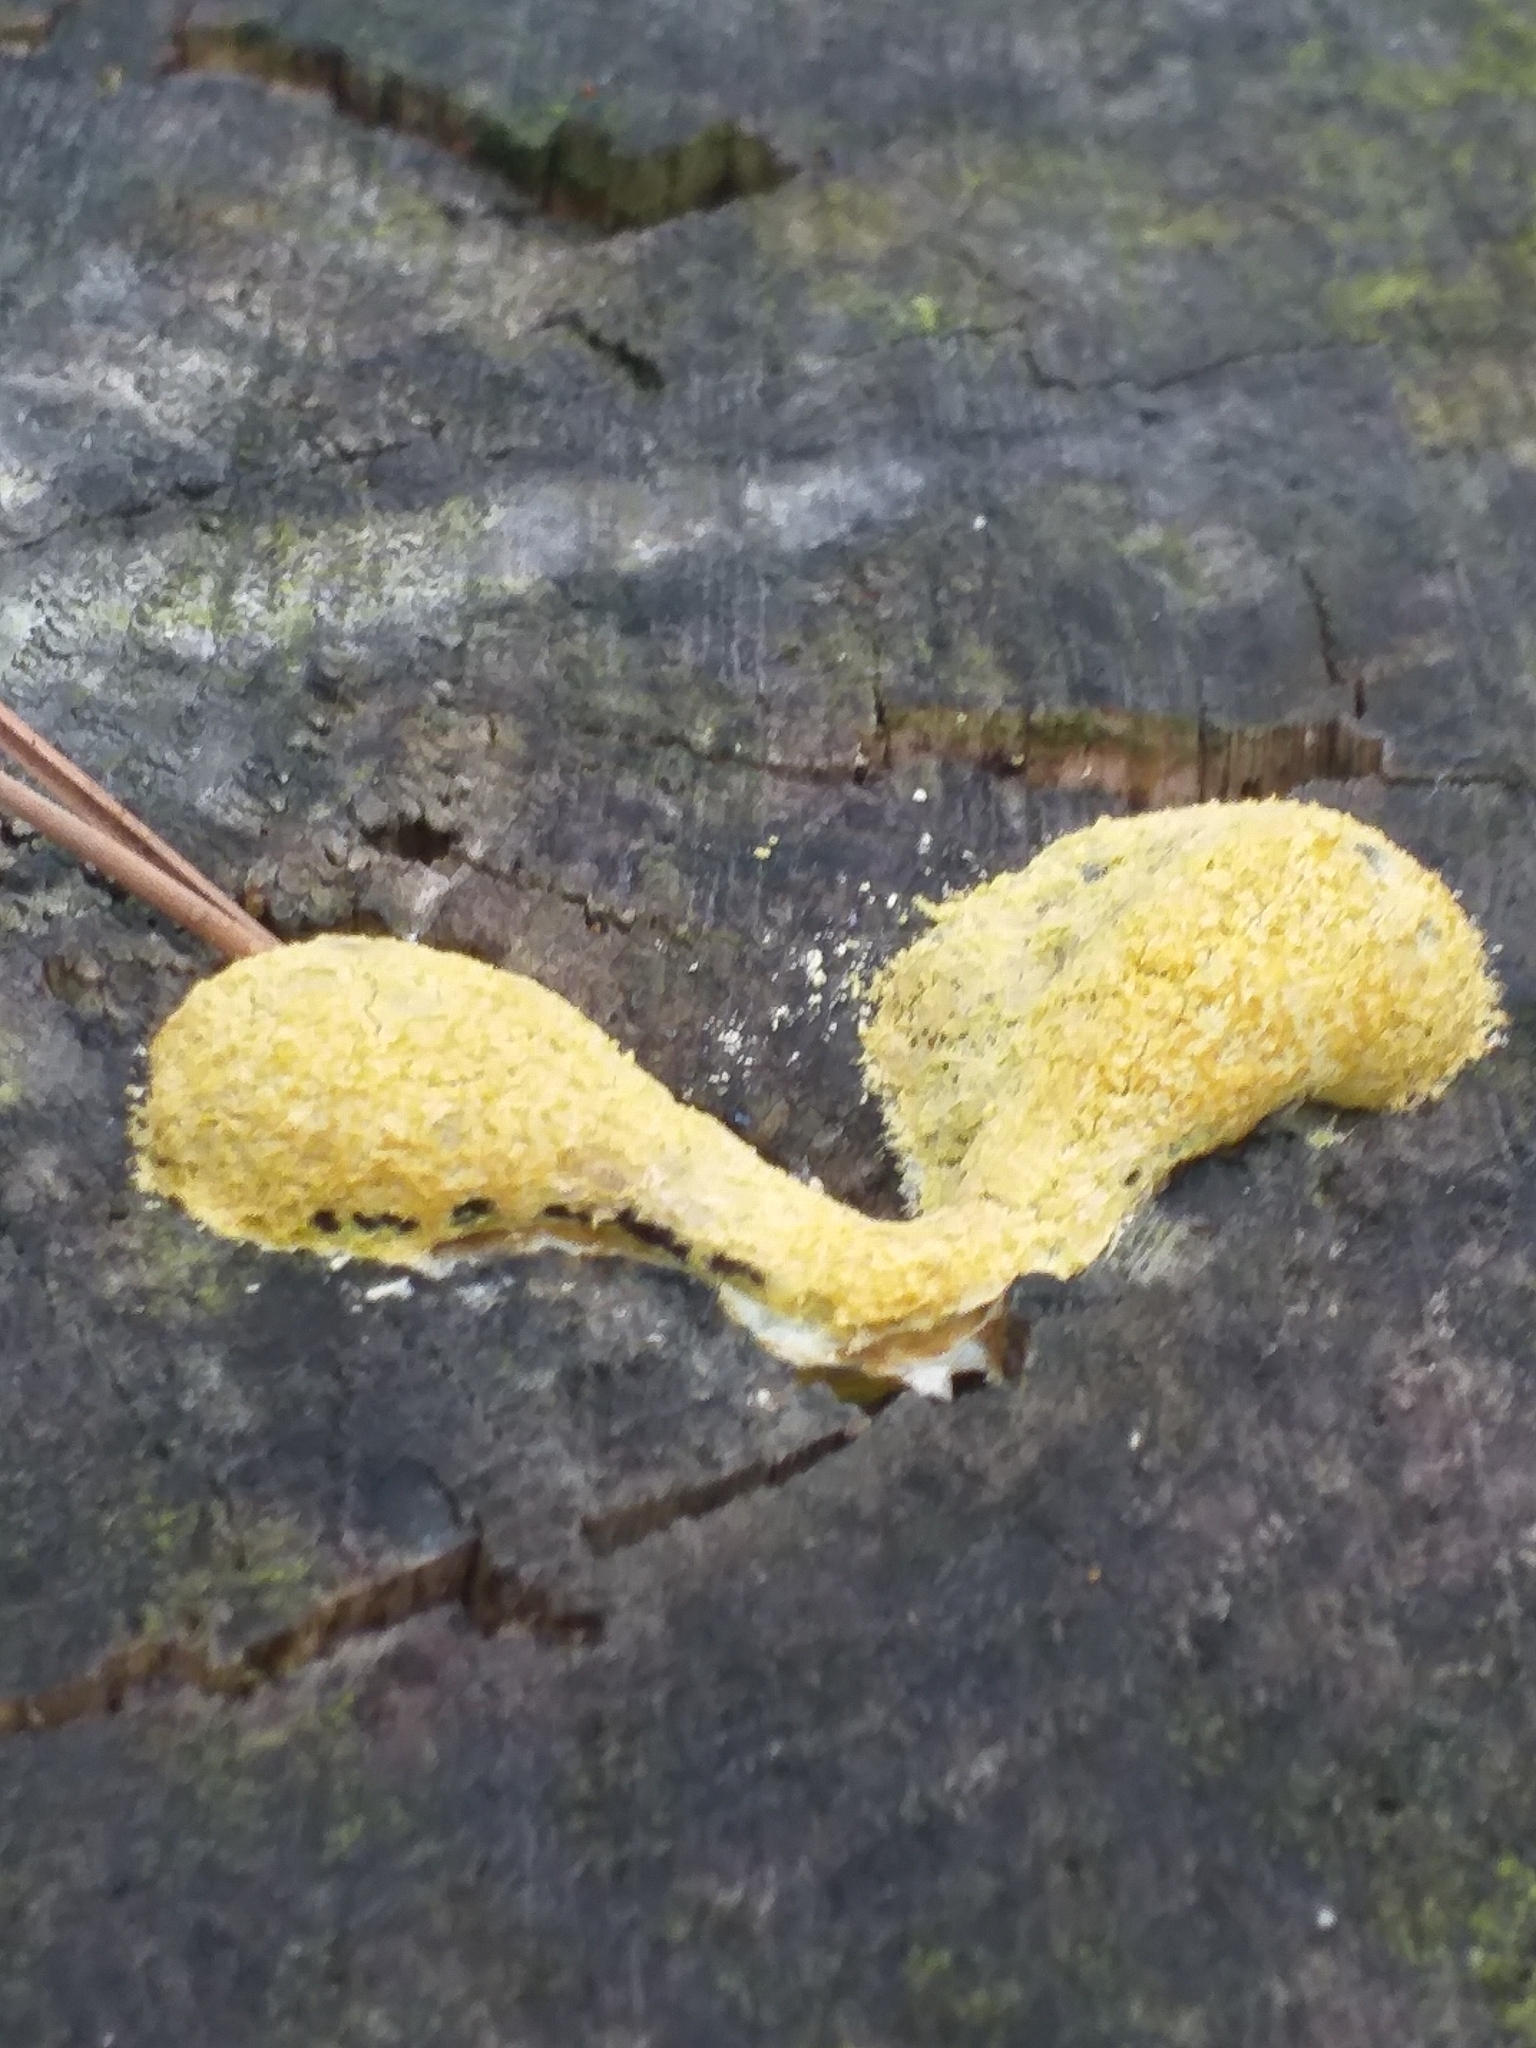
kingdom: Protozoa
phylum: Mycetozoa
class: Myxomycetes
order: Physarales
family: Physaraceae
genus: Fuligo
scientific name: Fuligo septica
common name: Dog vomit slime mold
